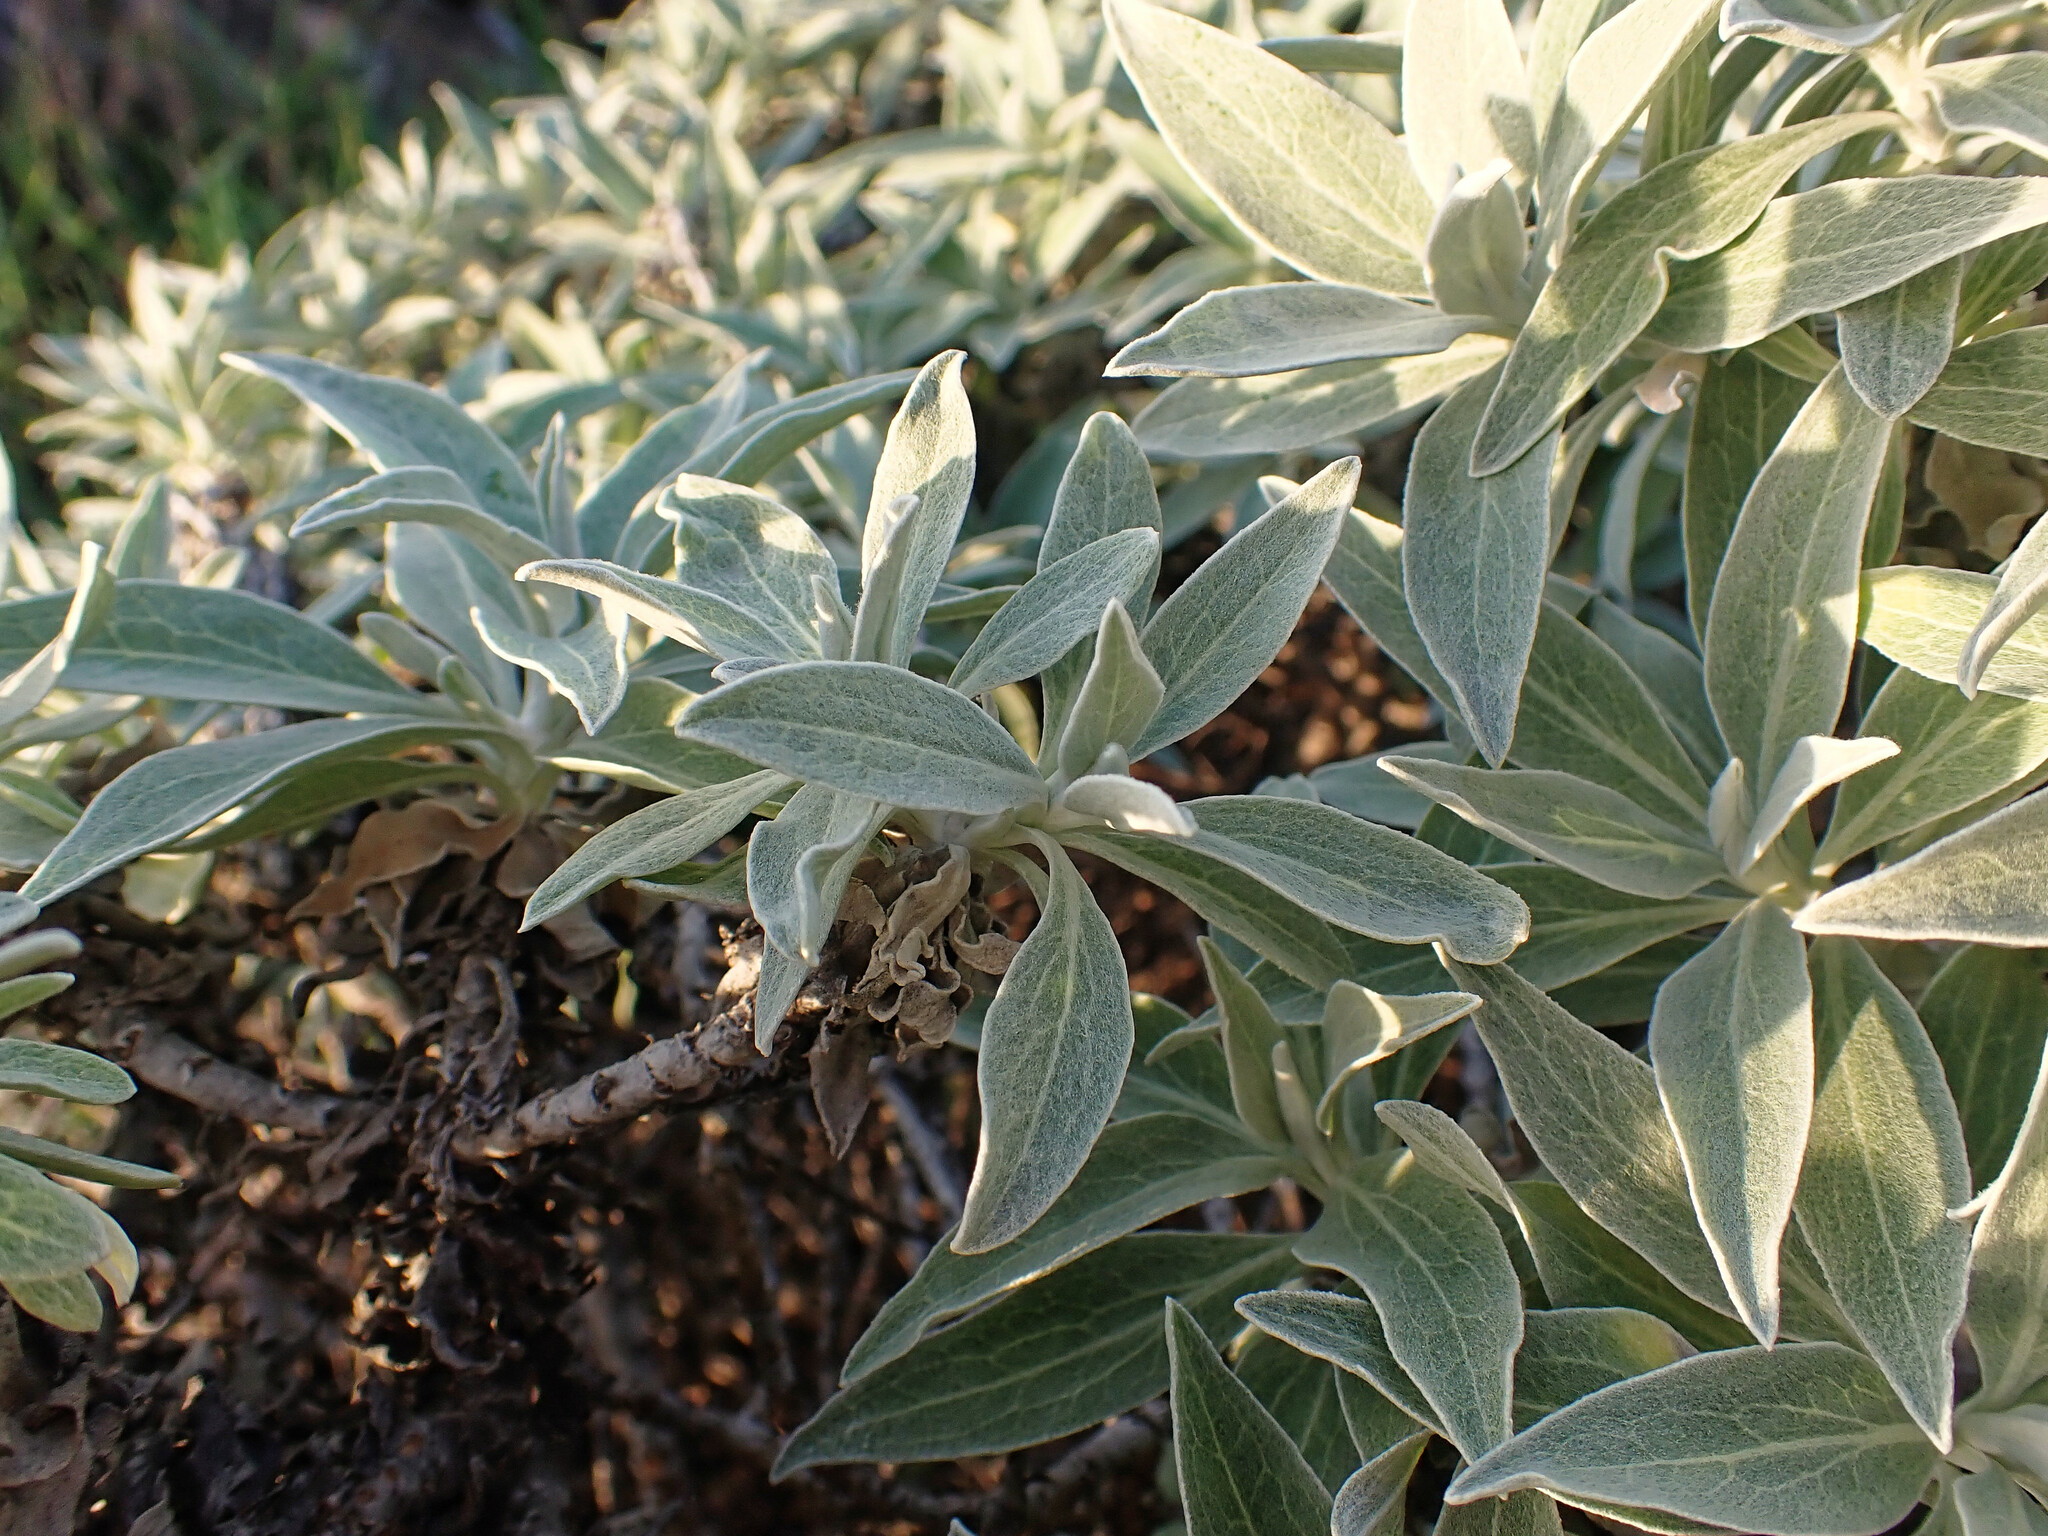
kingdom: Plantae
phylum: Tracheophyta
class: Magnoliopsida
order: Asterales
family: Asteraceae
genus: Helichrysum
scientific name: Helichrysum melaleucum
